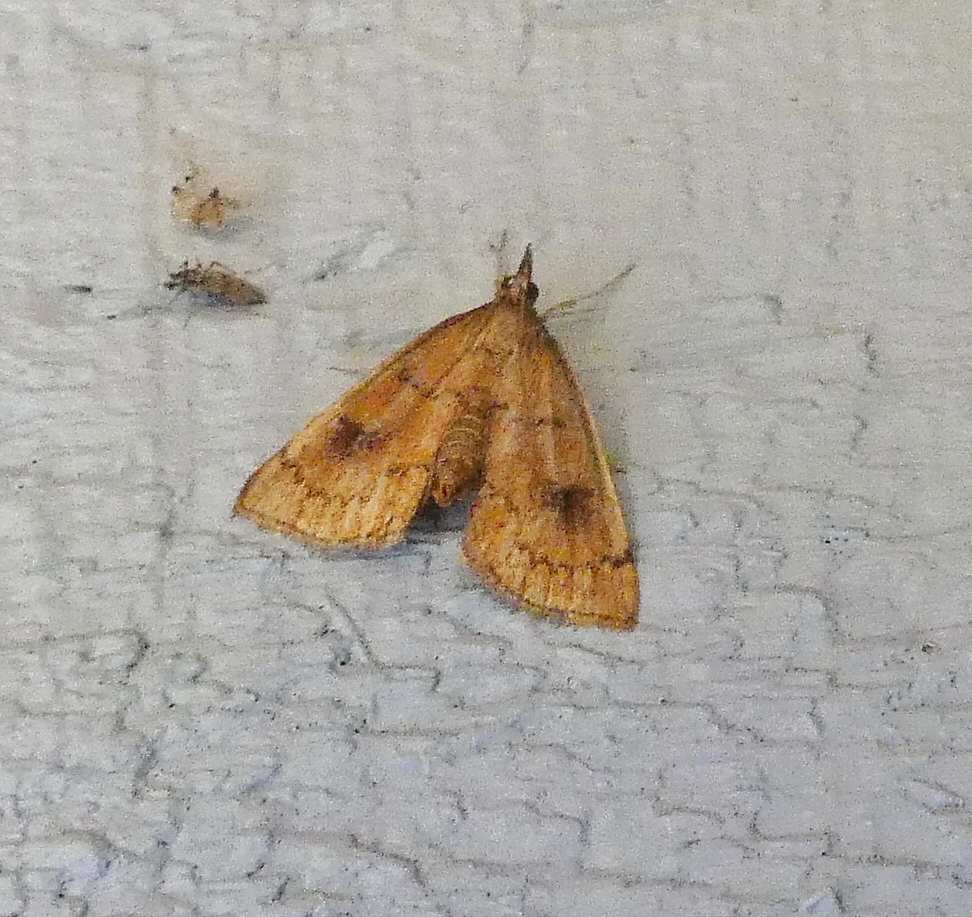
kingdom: Animalia
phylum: Arthropoda
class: Insecta
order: Lepidoptera
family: Crambidae
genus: Fumibotys
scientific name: Fumibotys fumalis
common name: Mint root borer moth
